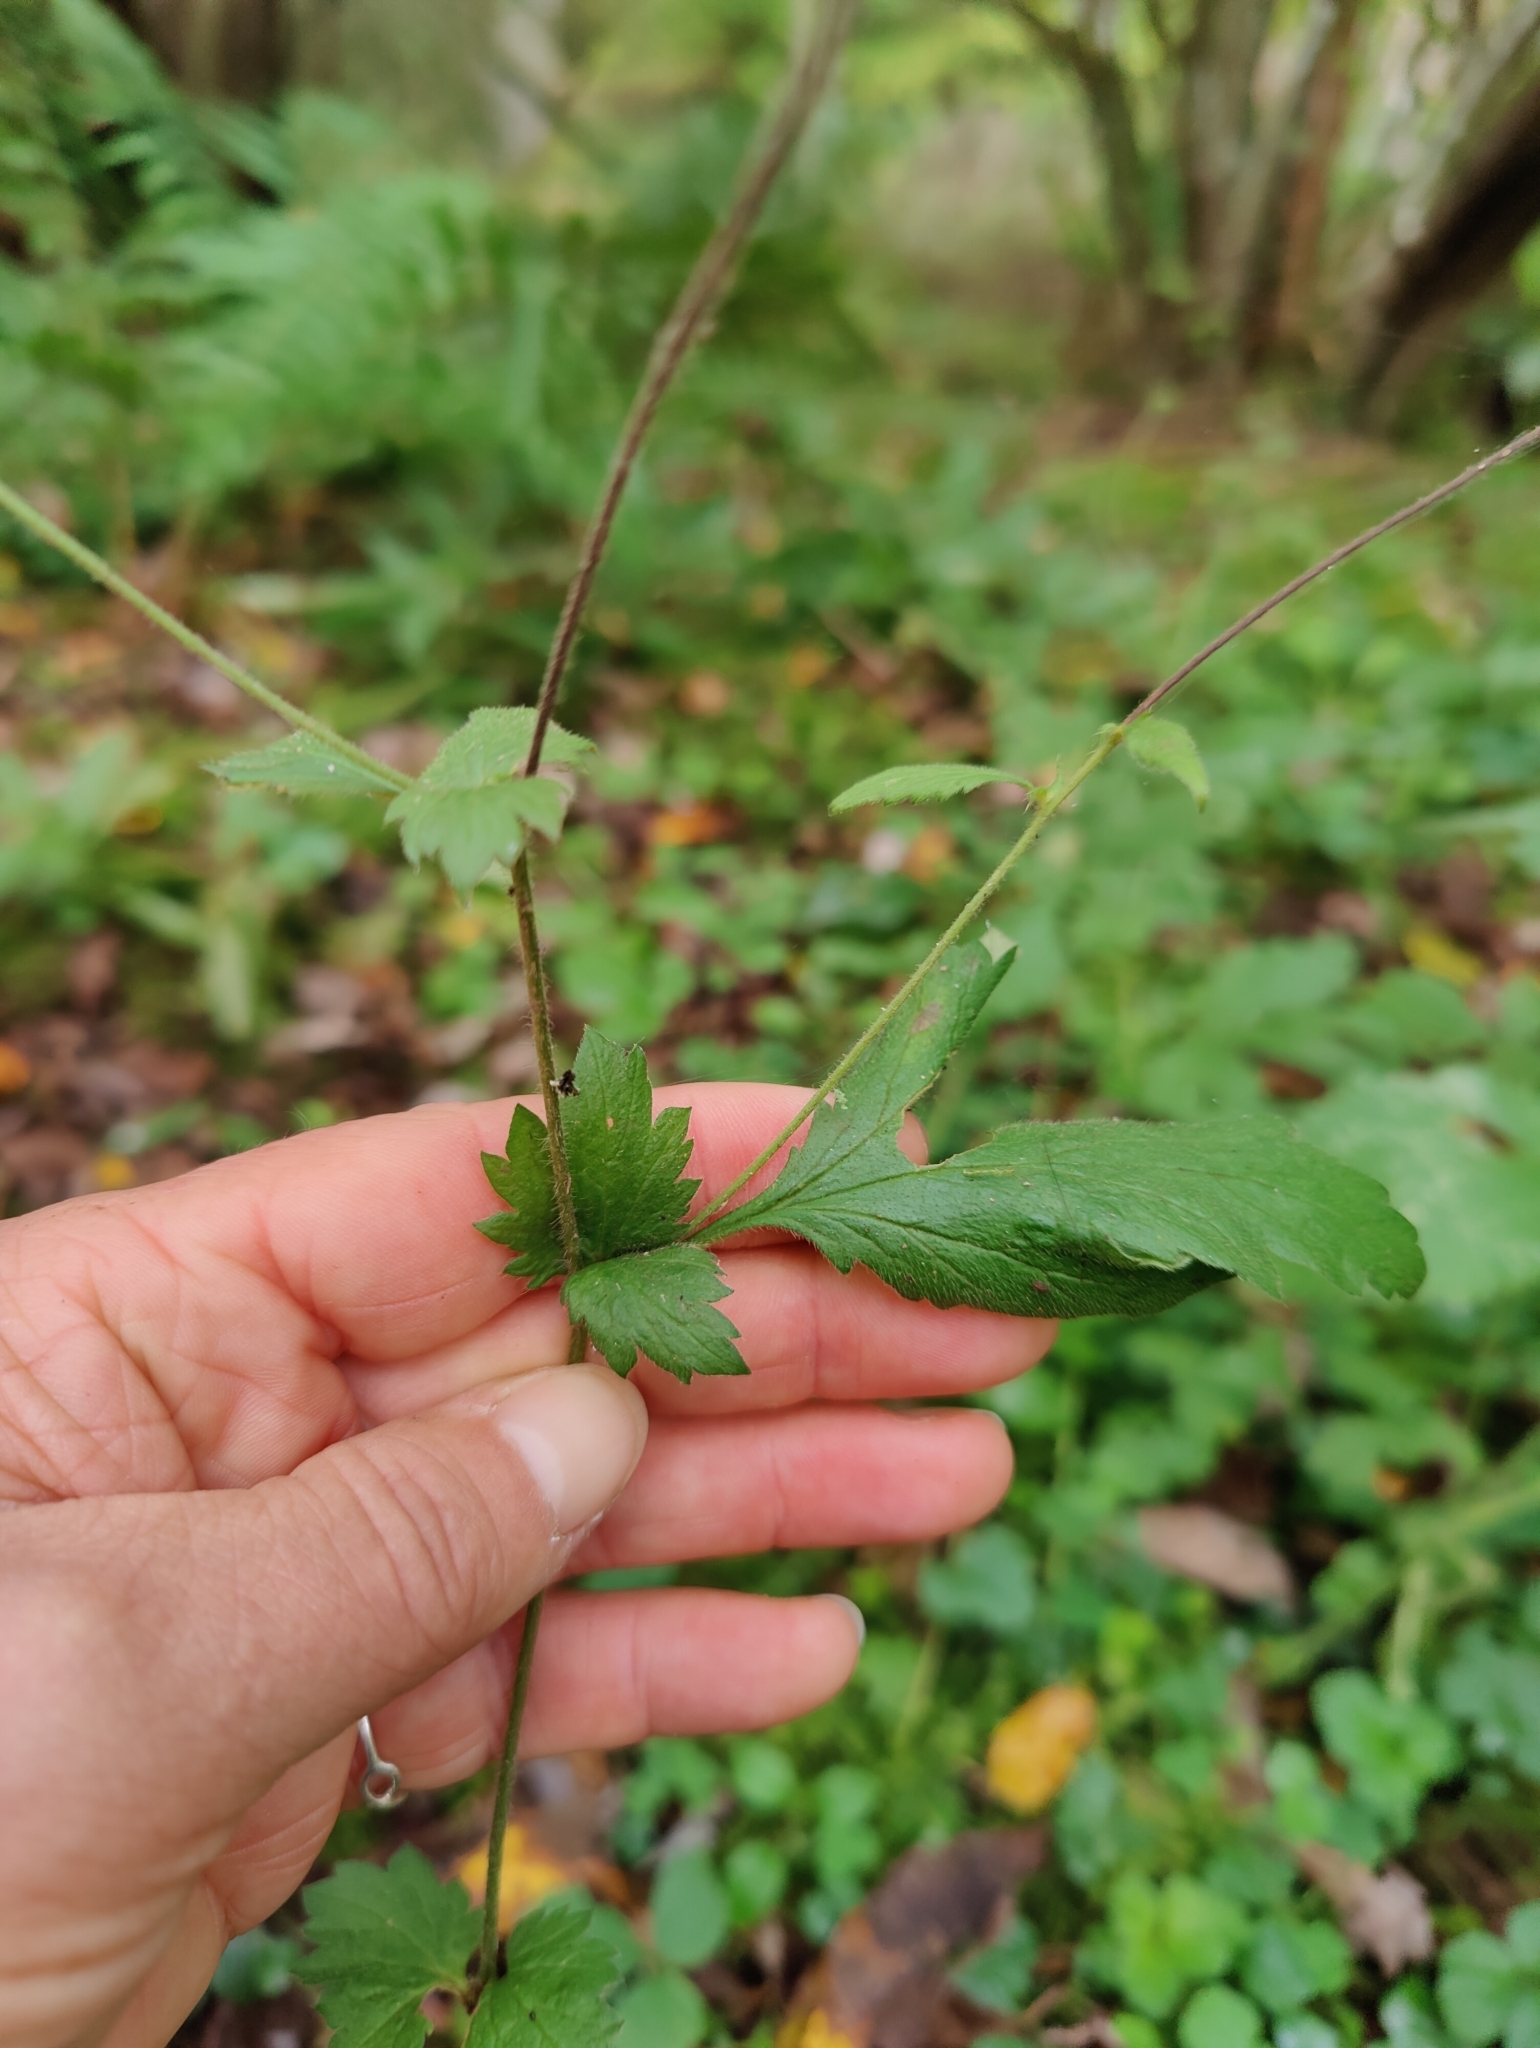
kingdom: Plantae
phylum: Tracheophyta
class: Magnoliopsida
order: Rosales
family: Rosaceae
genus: Geum
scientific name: Geum urbanum
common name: Wood avens
